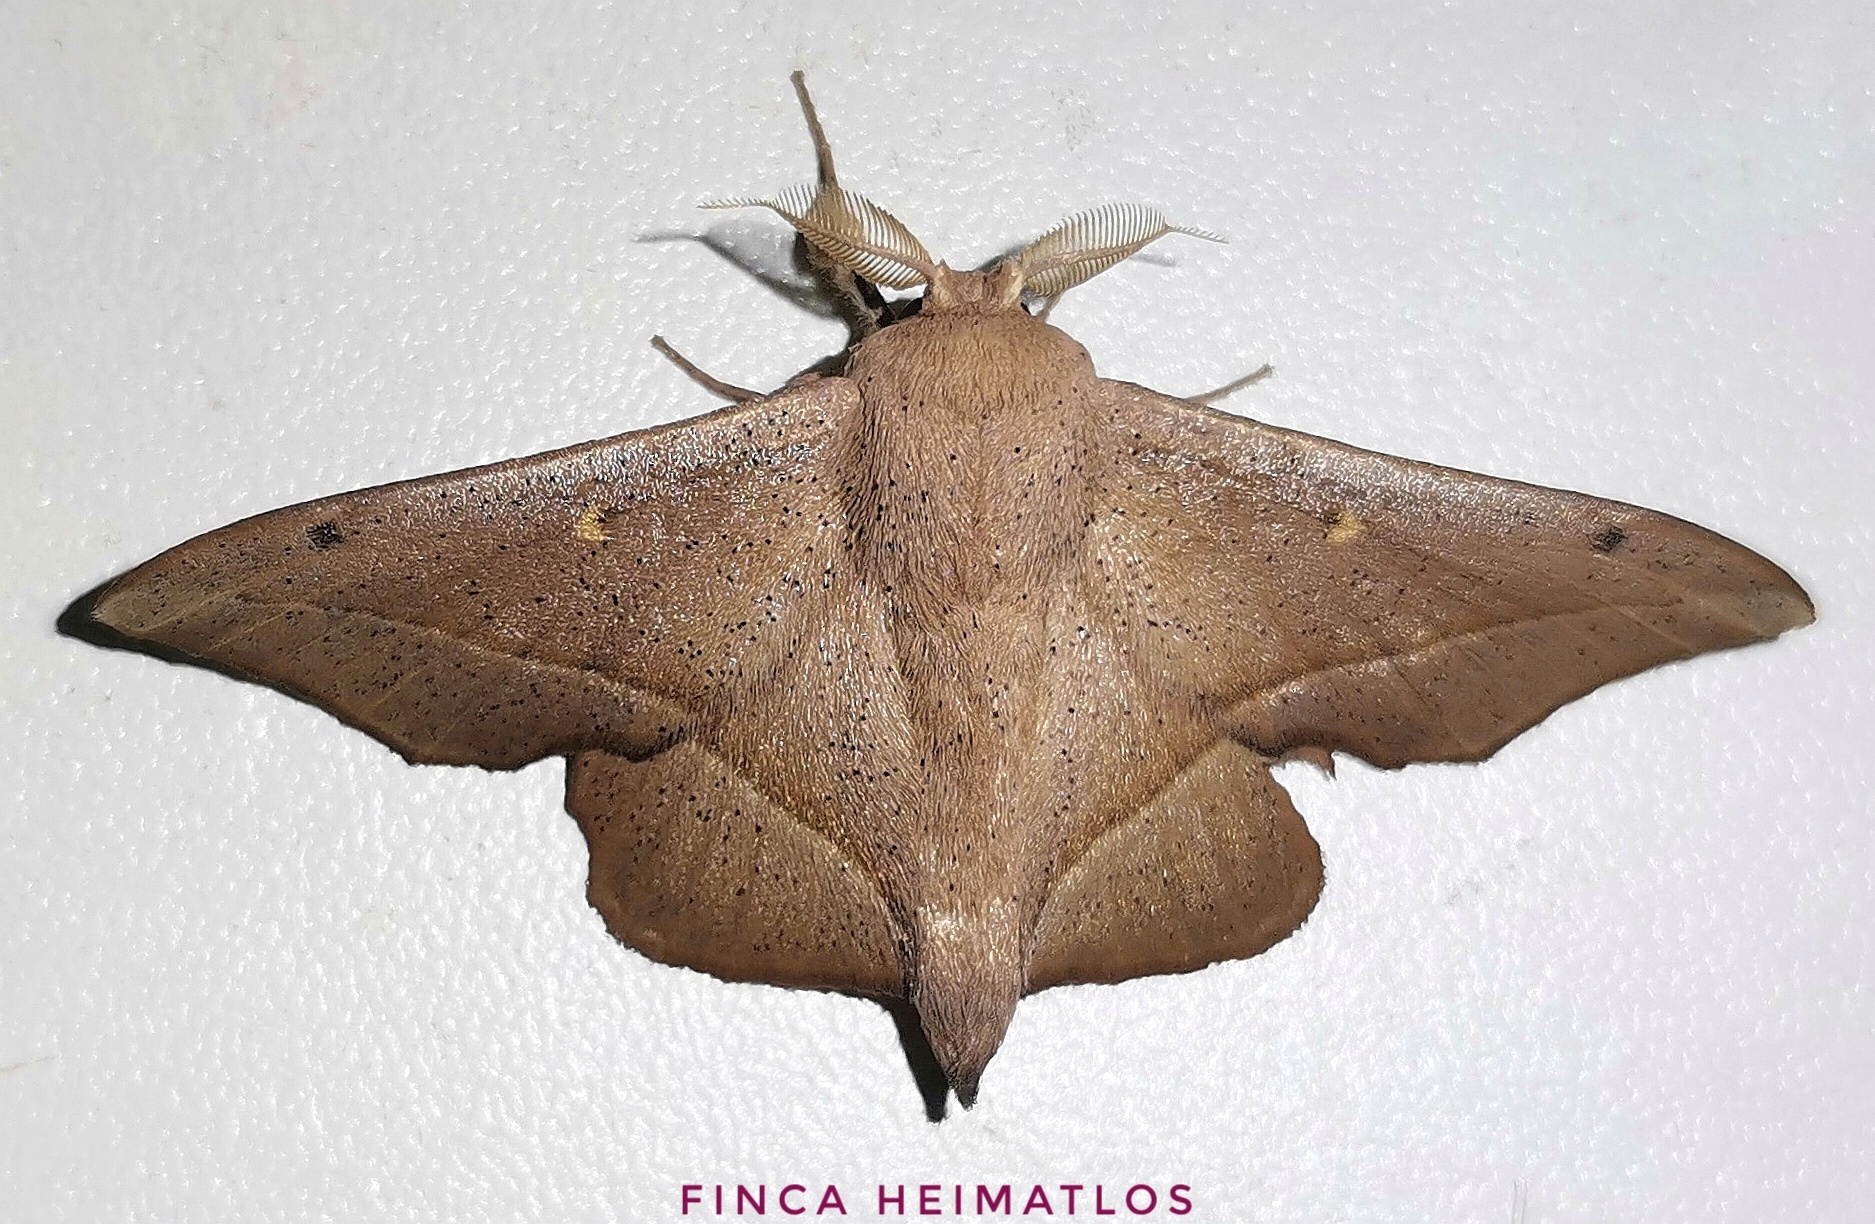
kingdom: Animalia
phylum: Arthropoda
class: Insecta
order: Lepidoptera
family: Mimallonidae
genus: Druentica
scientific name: Druentica partha
